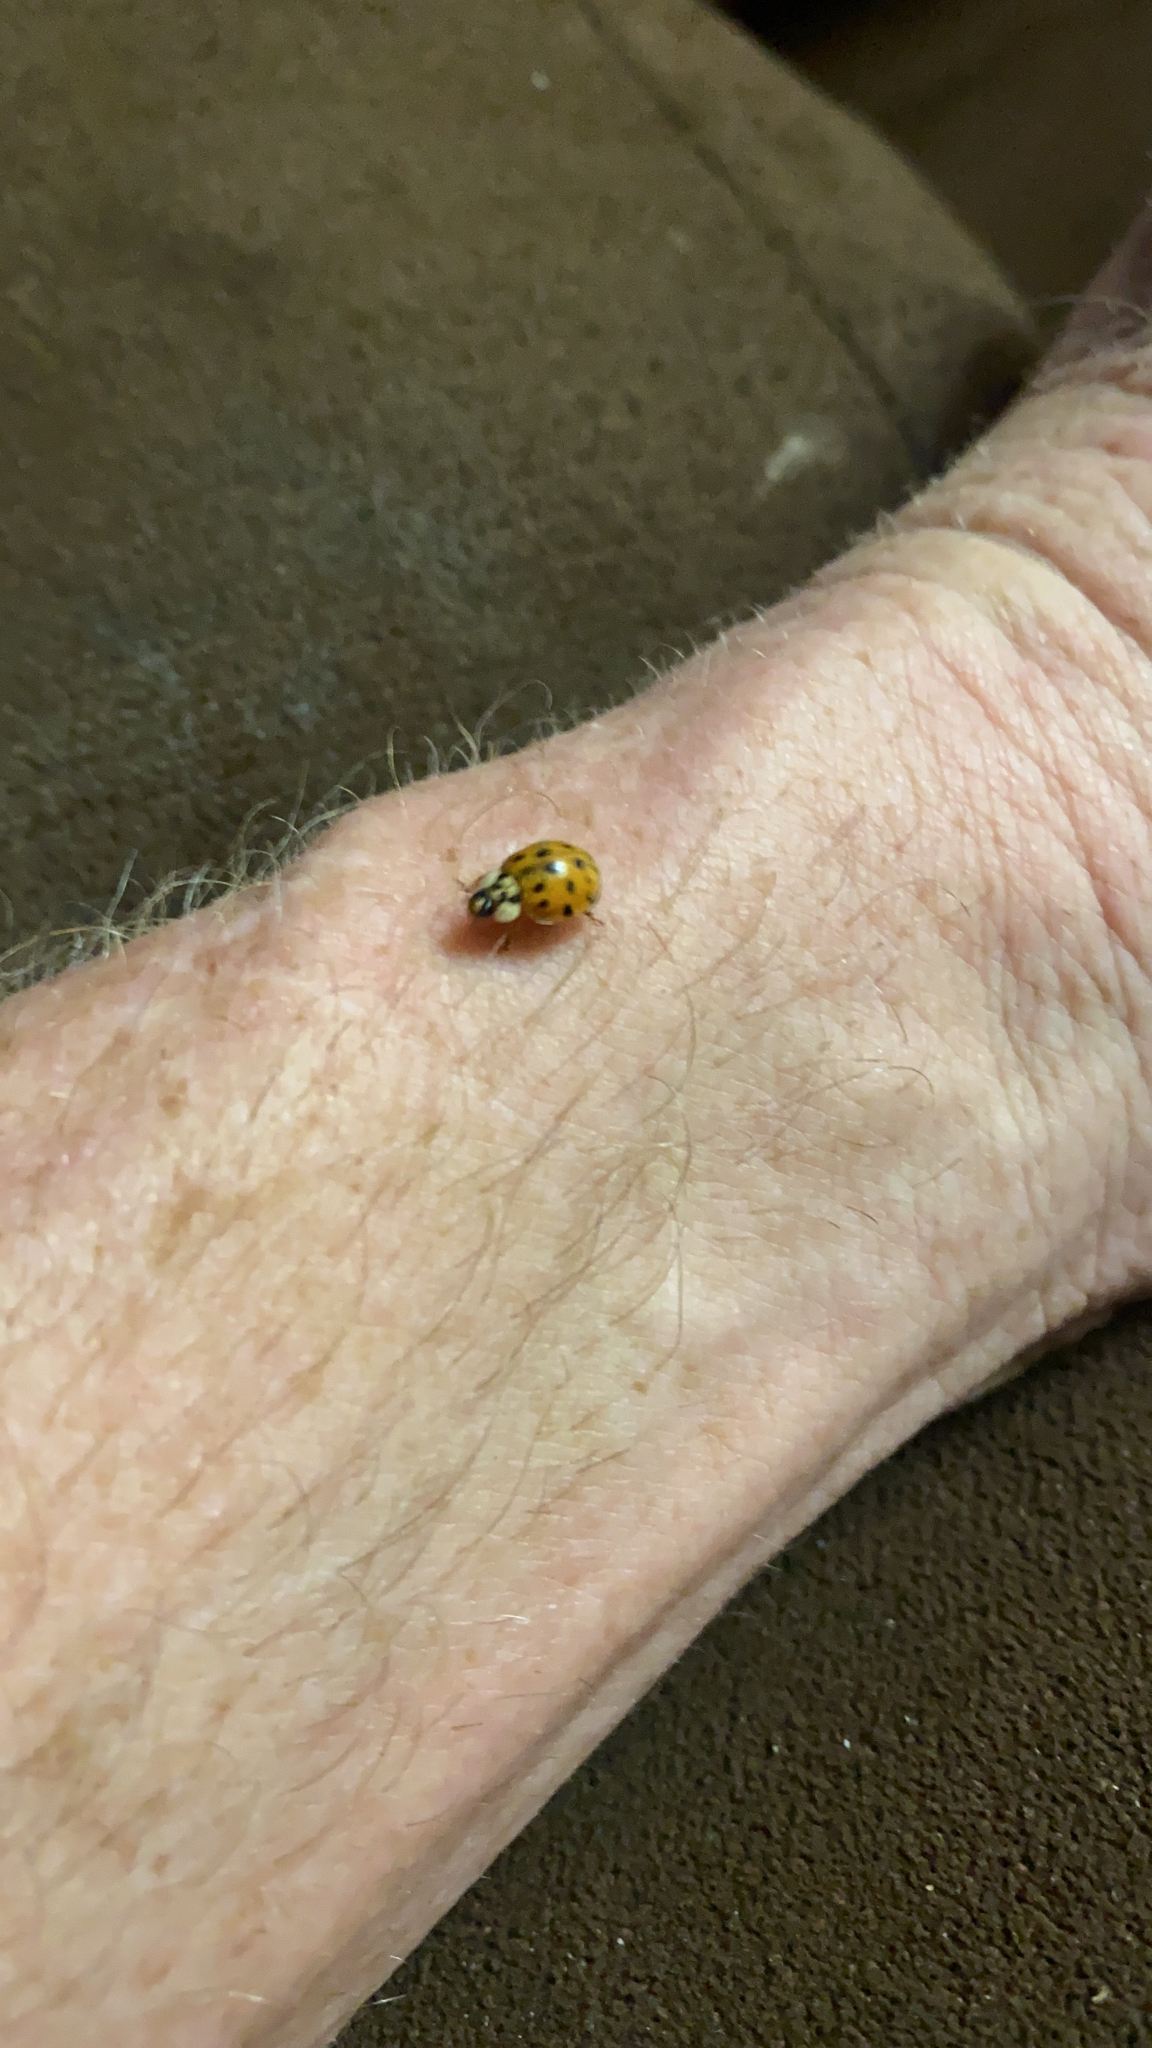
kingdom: Animalia
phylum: Arthropoda
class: Insecta
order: Coleoptera
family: Coccinellidae
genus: Harmonia
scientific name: Harmonia axyridis
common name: Harlequin ladybird
